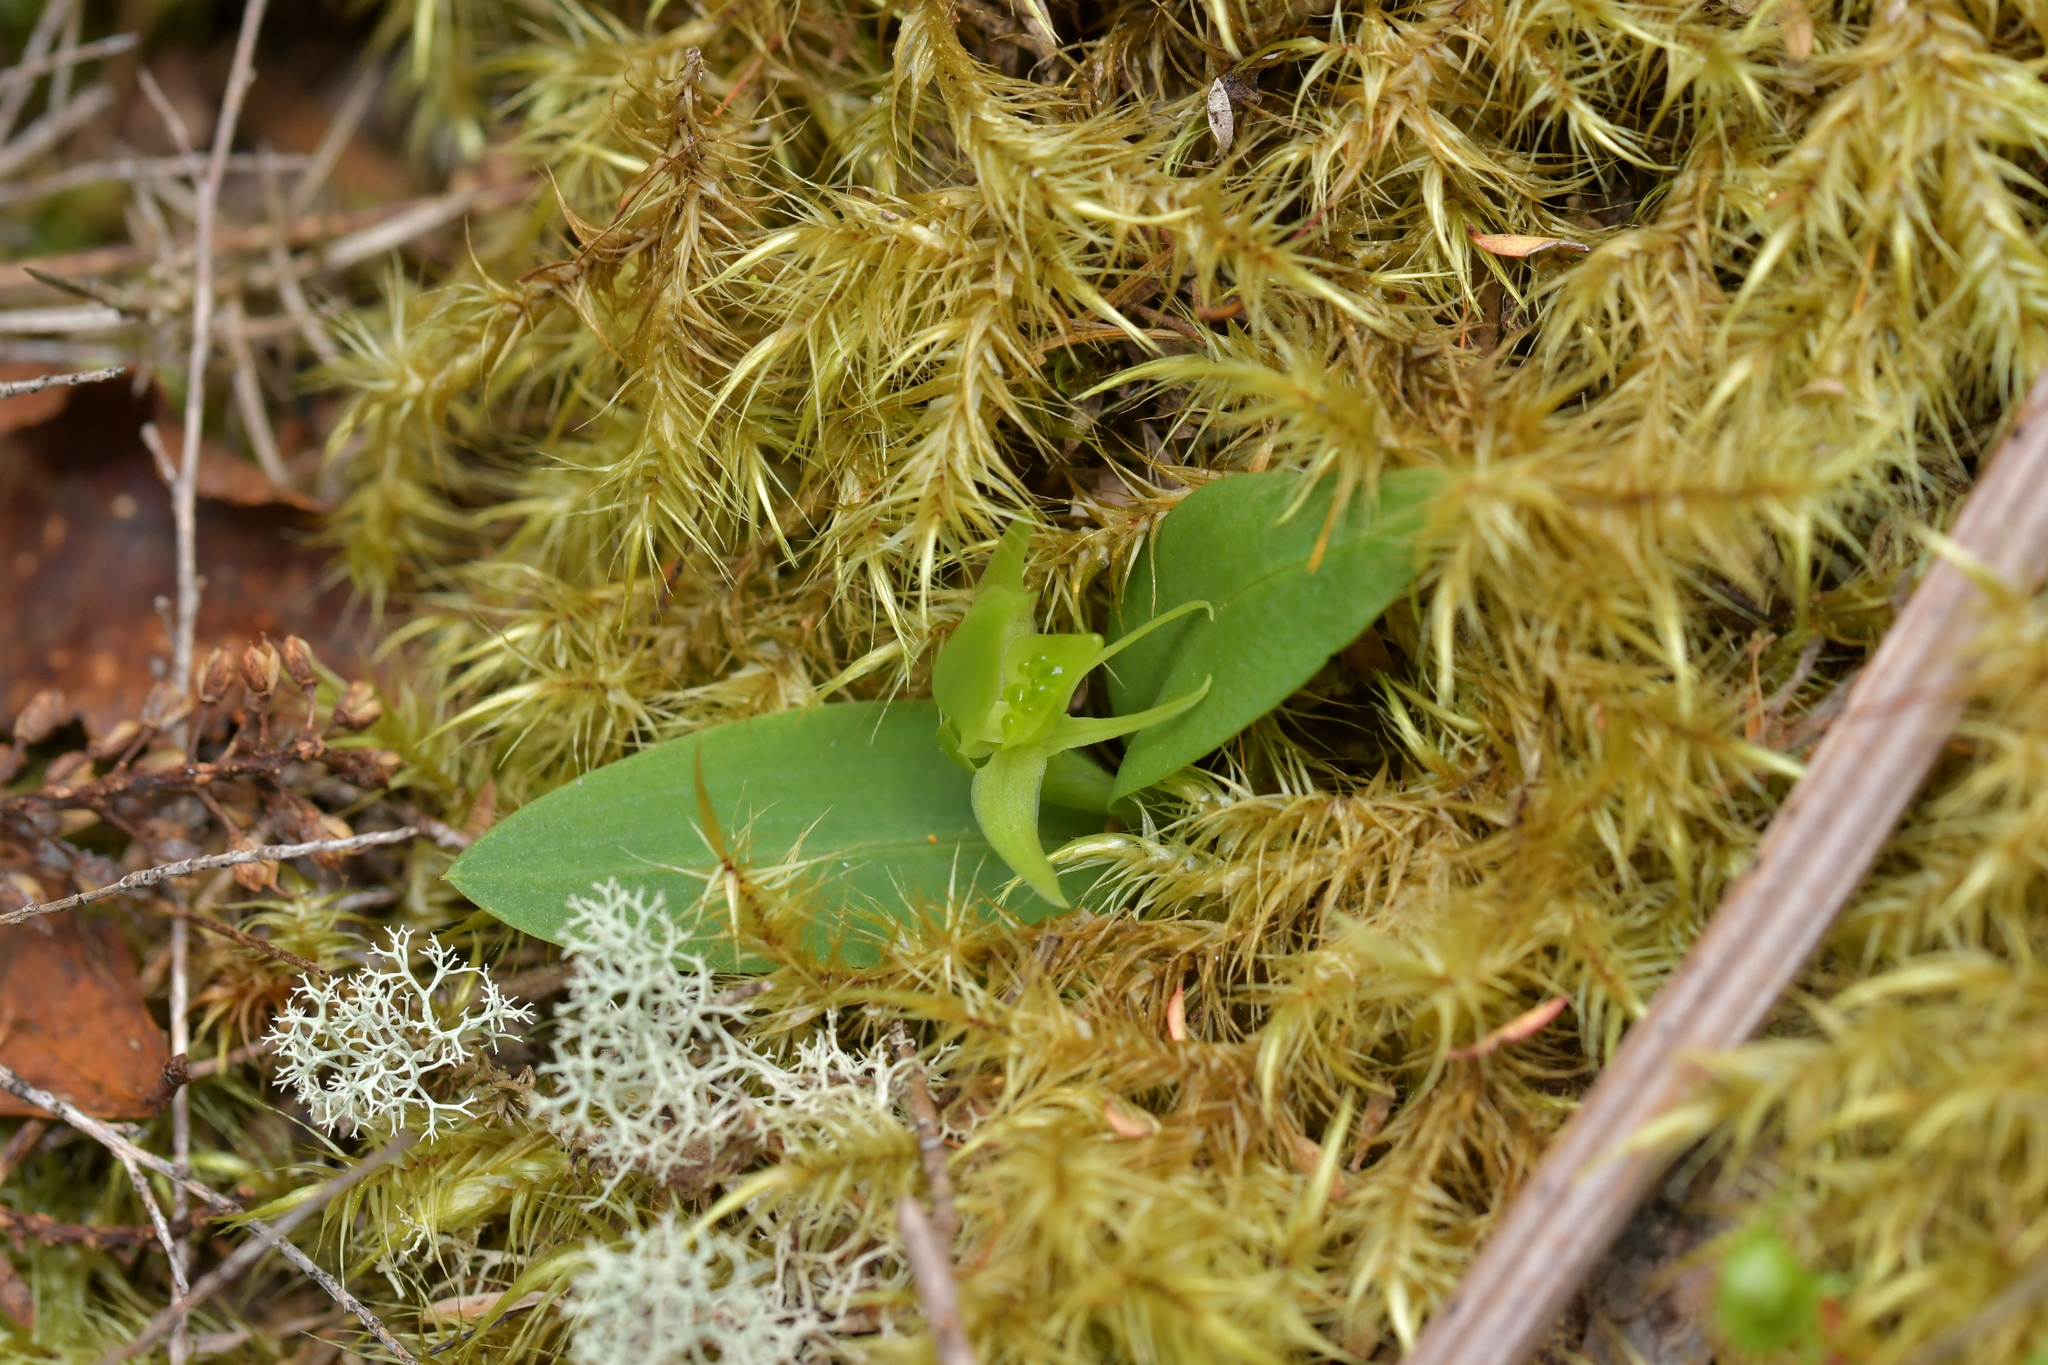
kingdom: Plantae
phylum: Tracheophyta
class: Liliopsida
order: Asparagales
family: Orchidaceae
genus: Chiloglottis
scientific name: Chiloglottis cornuta
